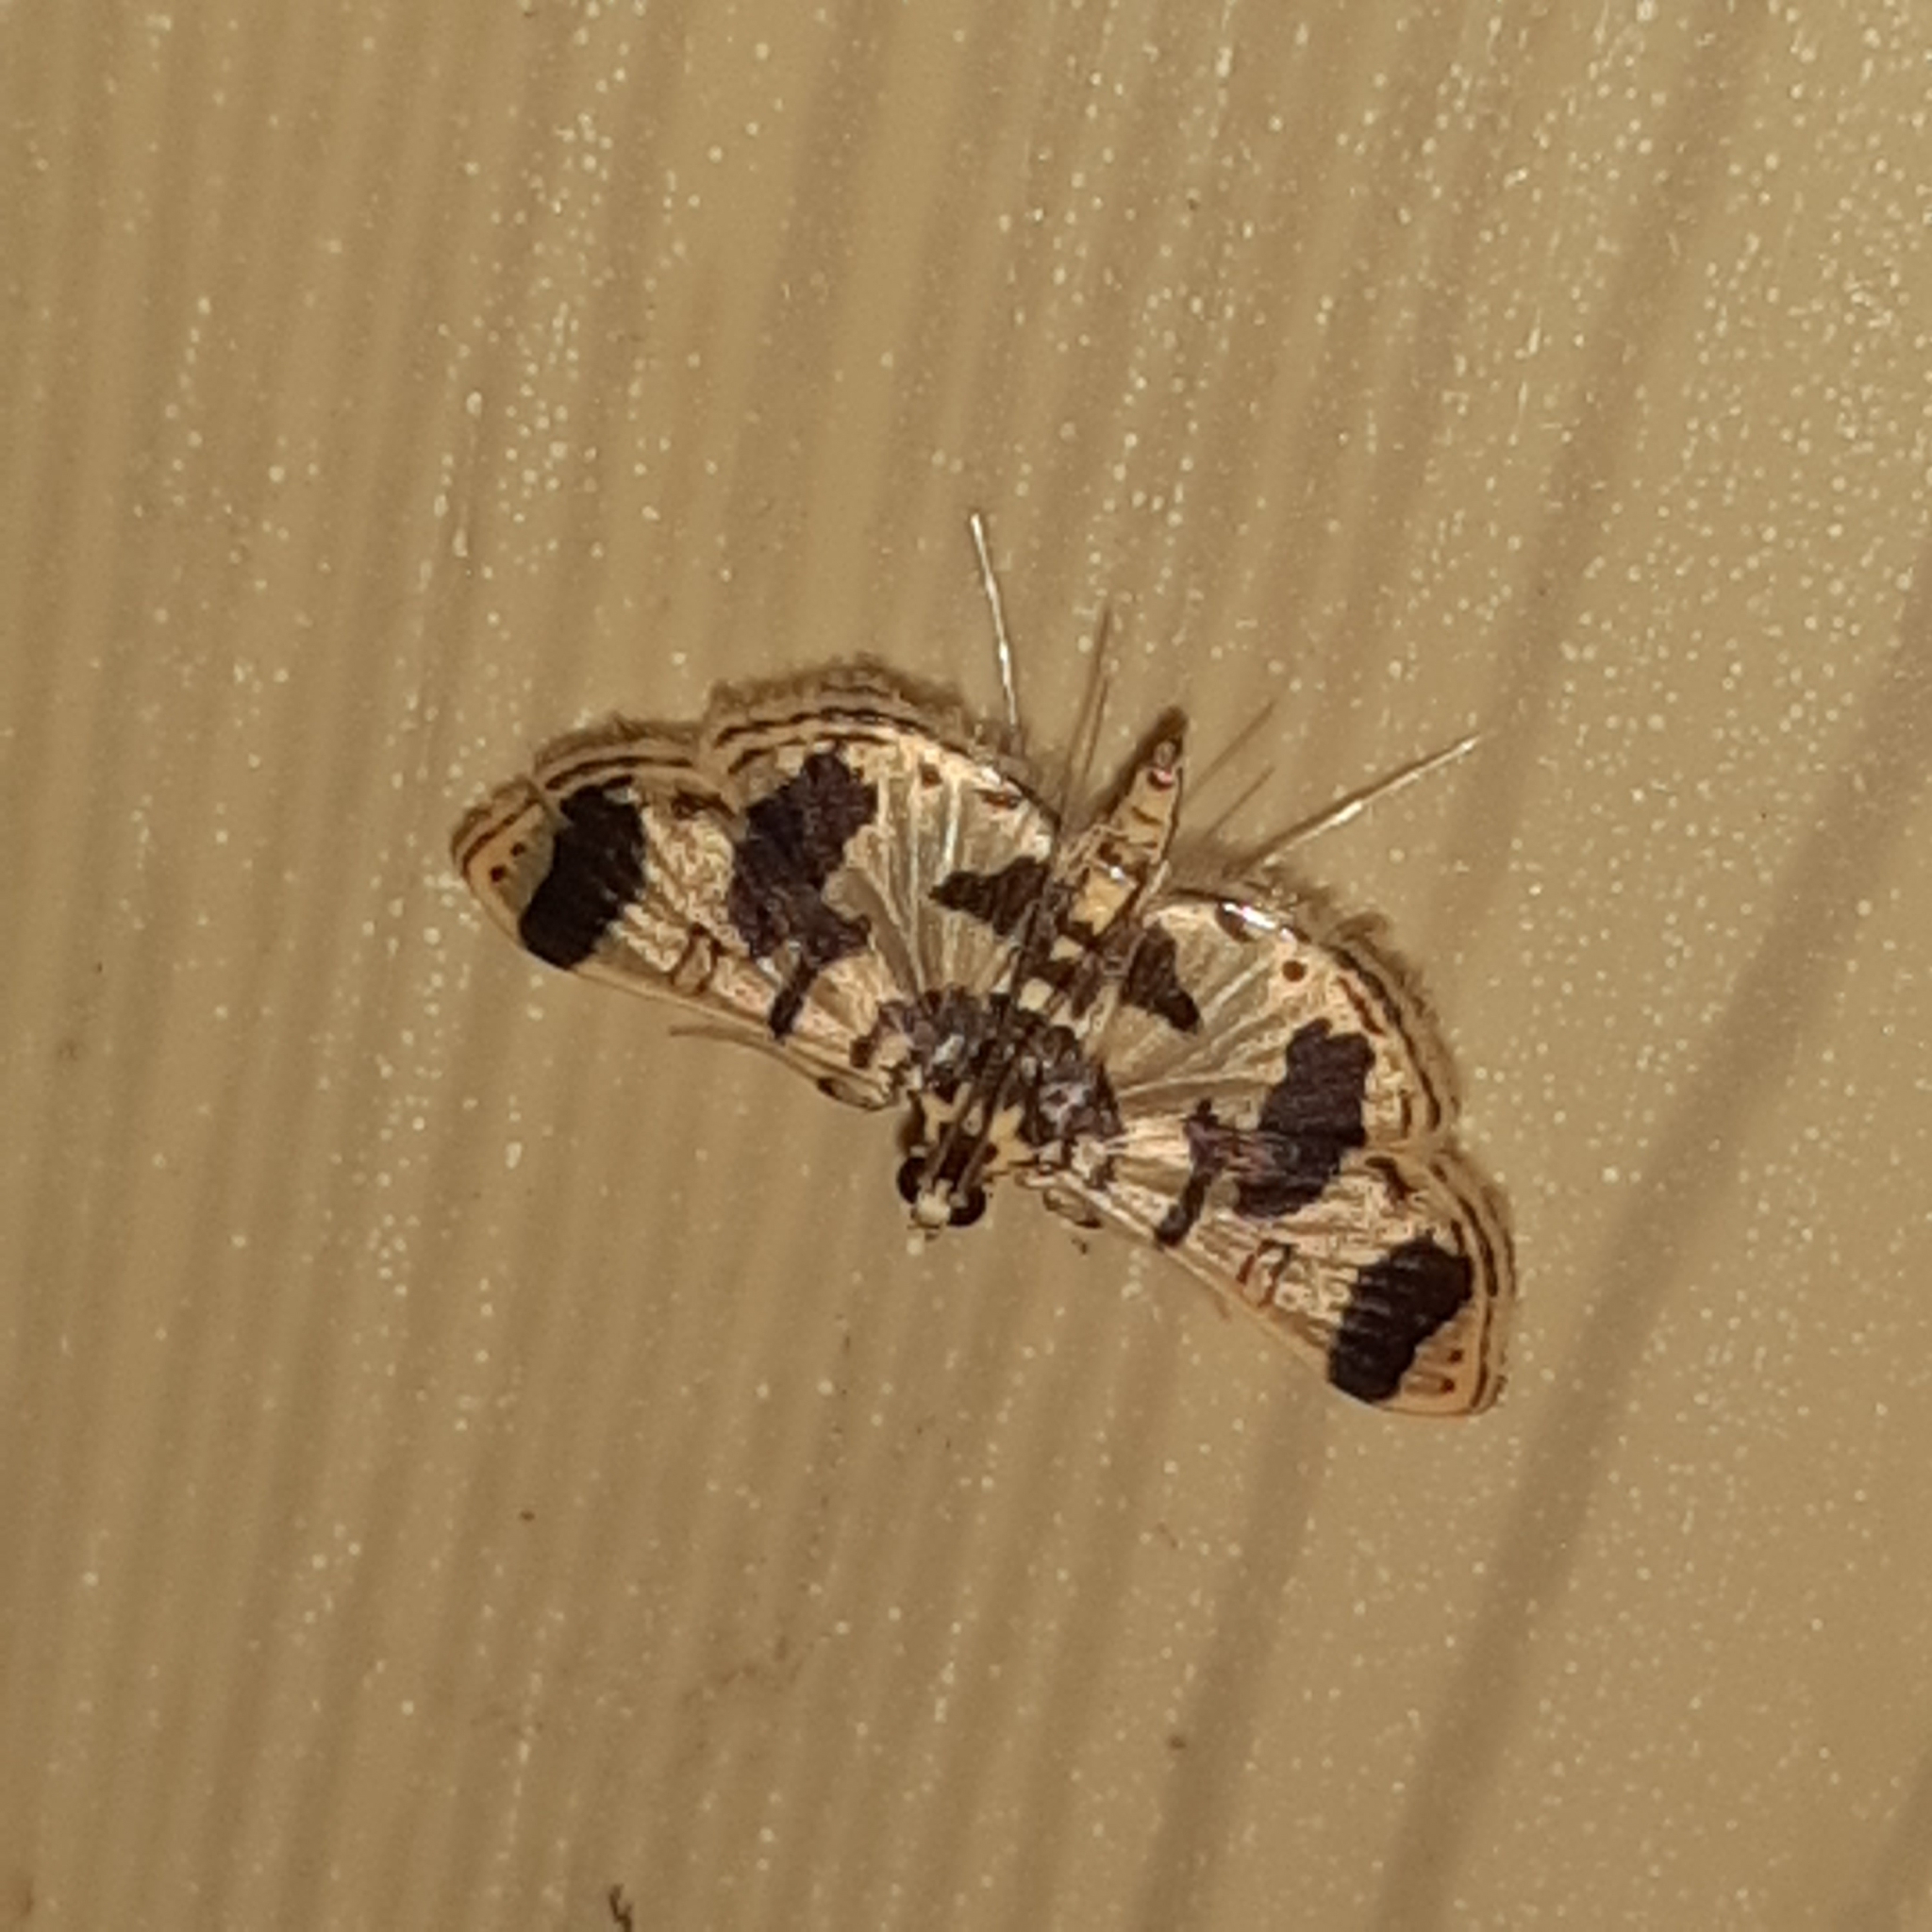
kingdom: Animalia
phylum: Arthropoda
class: Insecta
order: Lepidoptera
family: Crambidae
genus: Bradina
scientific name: Bradina aaronalis
